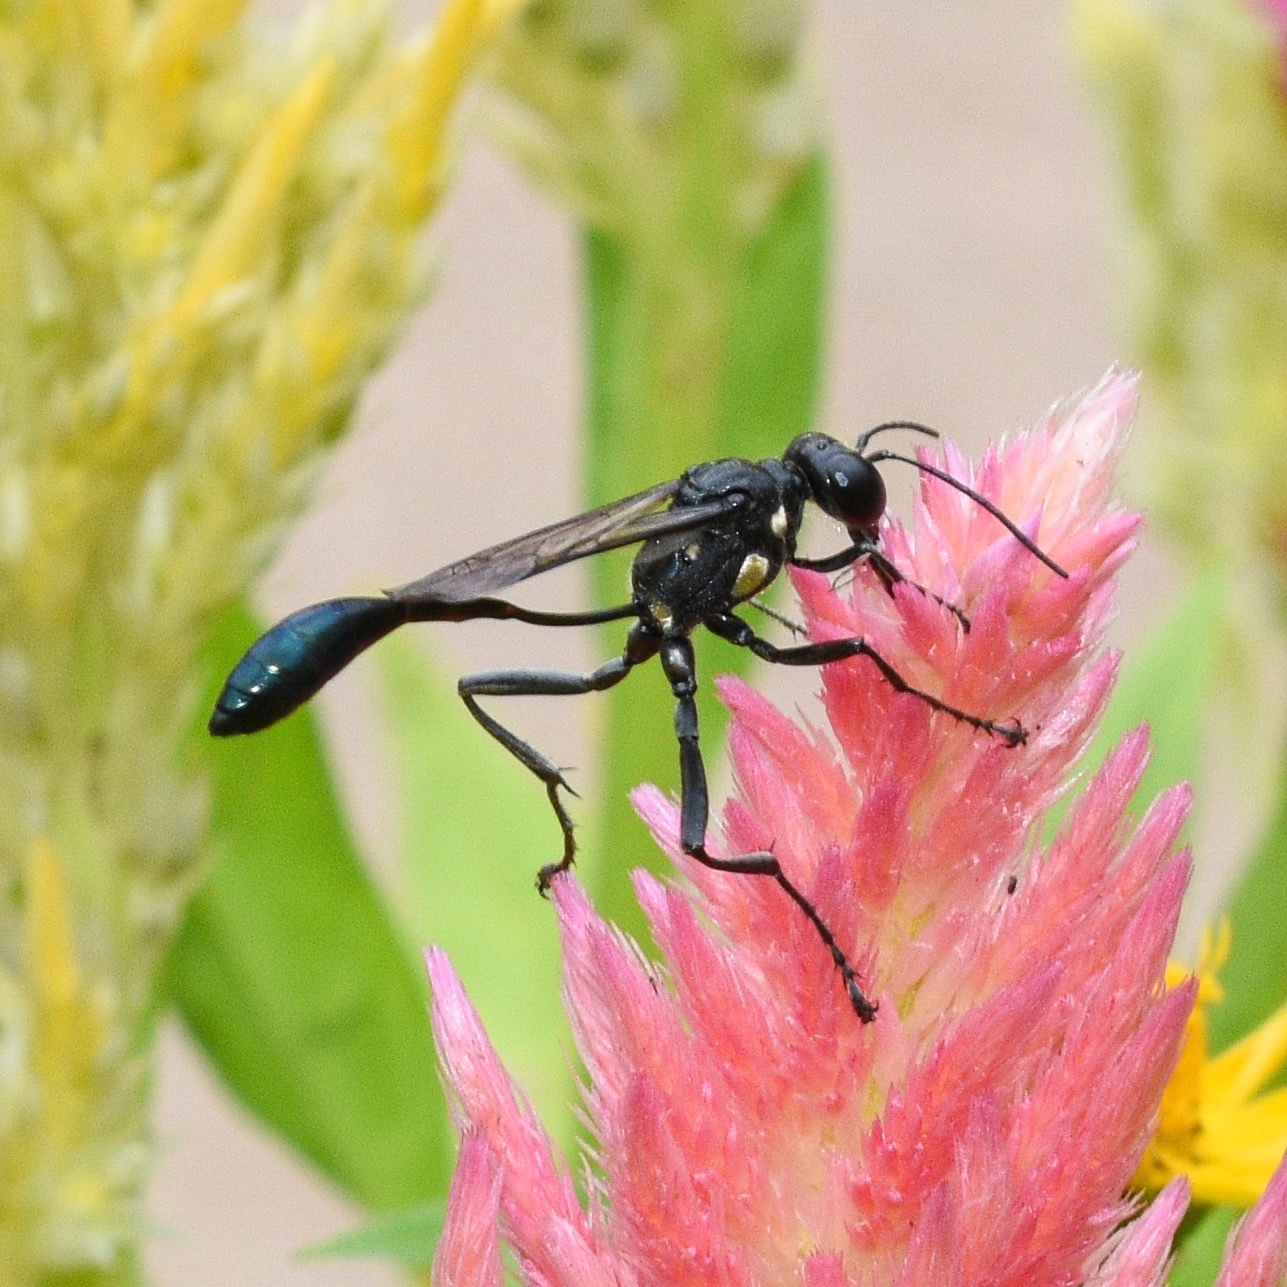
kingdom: Animalia
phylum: Arthropoda
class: Insecta
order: Hymenoptera
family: Sphecidae
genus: Eremnophila
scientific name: Eremnophila aureonotata
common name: Gold-marked thread-waisted wasp
